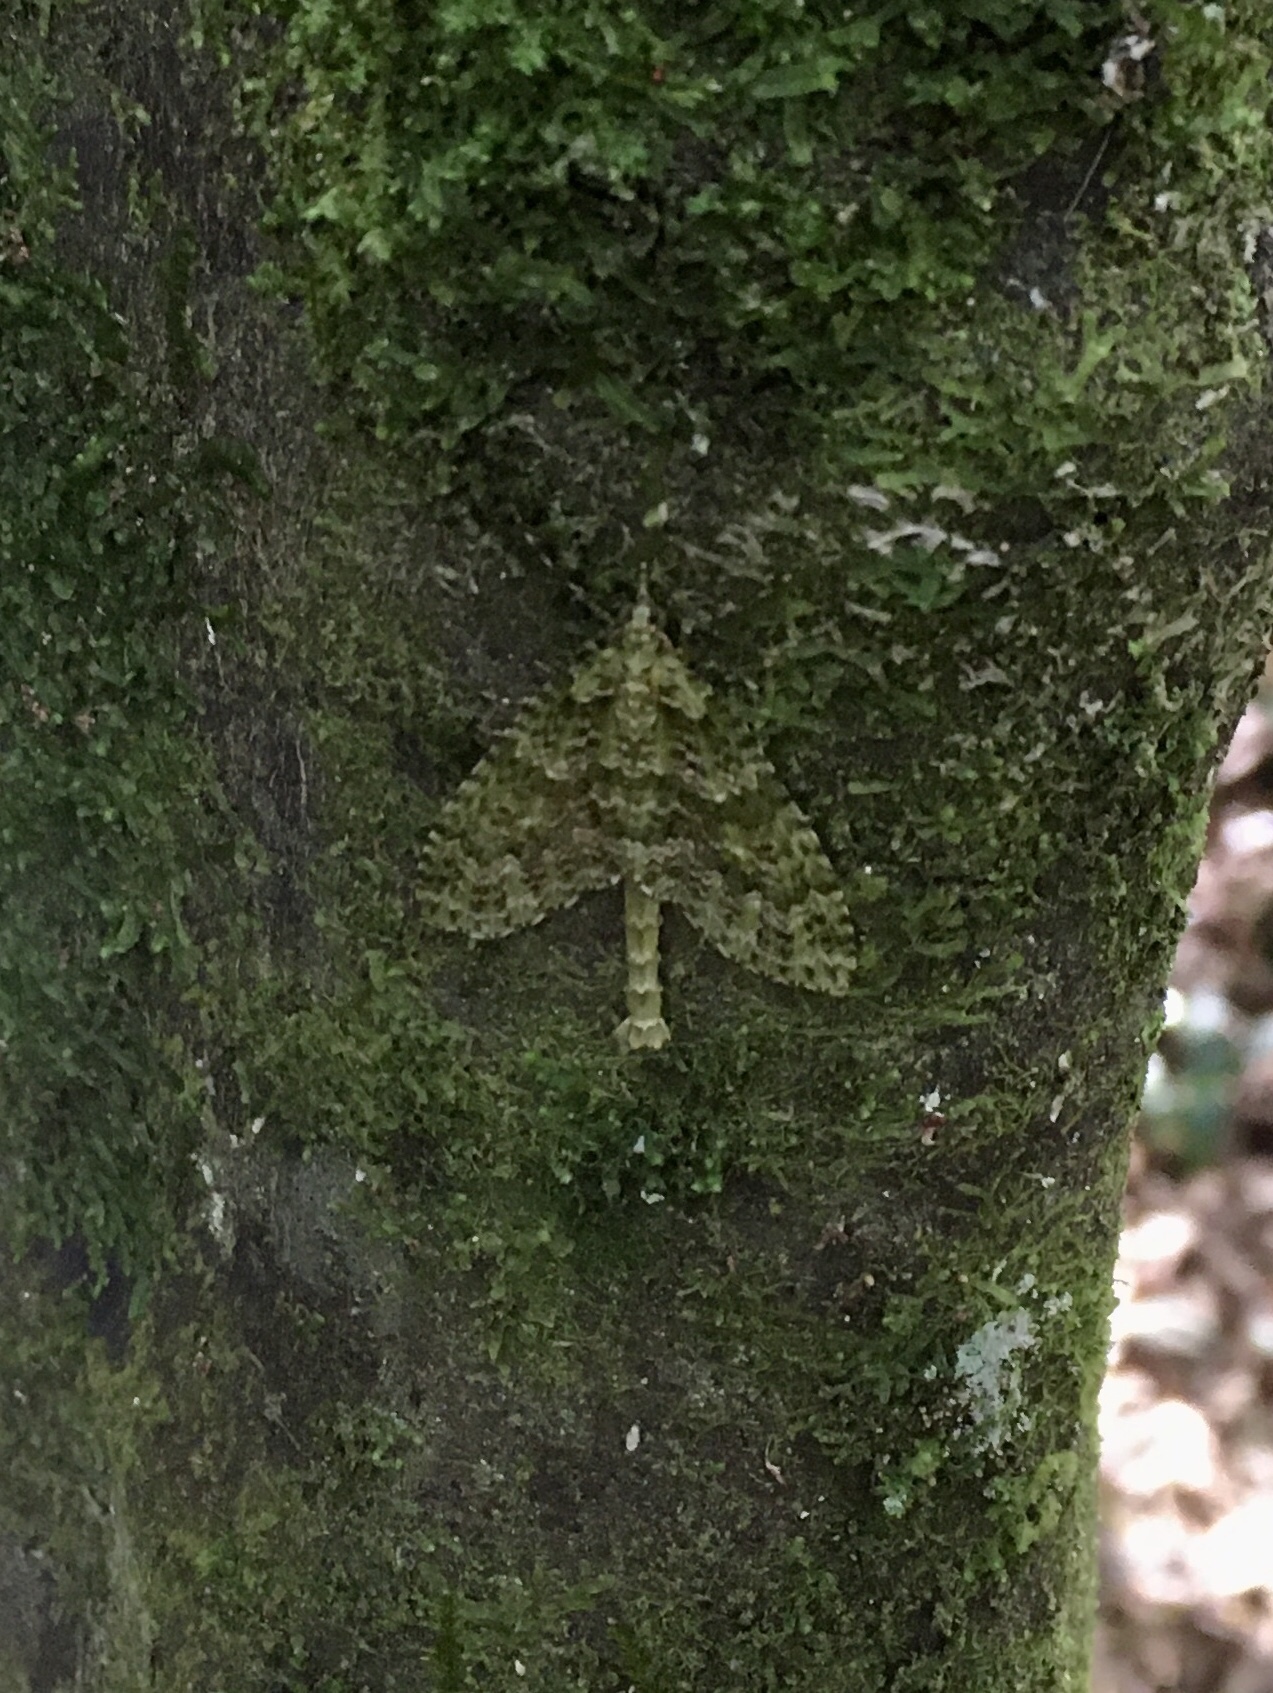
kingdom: Animalia
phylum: Arthropoda
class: Insecta
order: Lepidoptera
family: Geometridae
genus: Tatosoma
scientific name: Tatosoma tipulata
